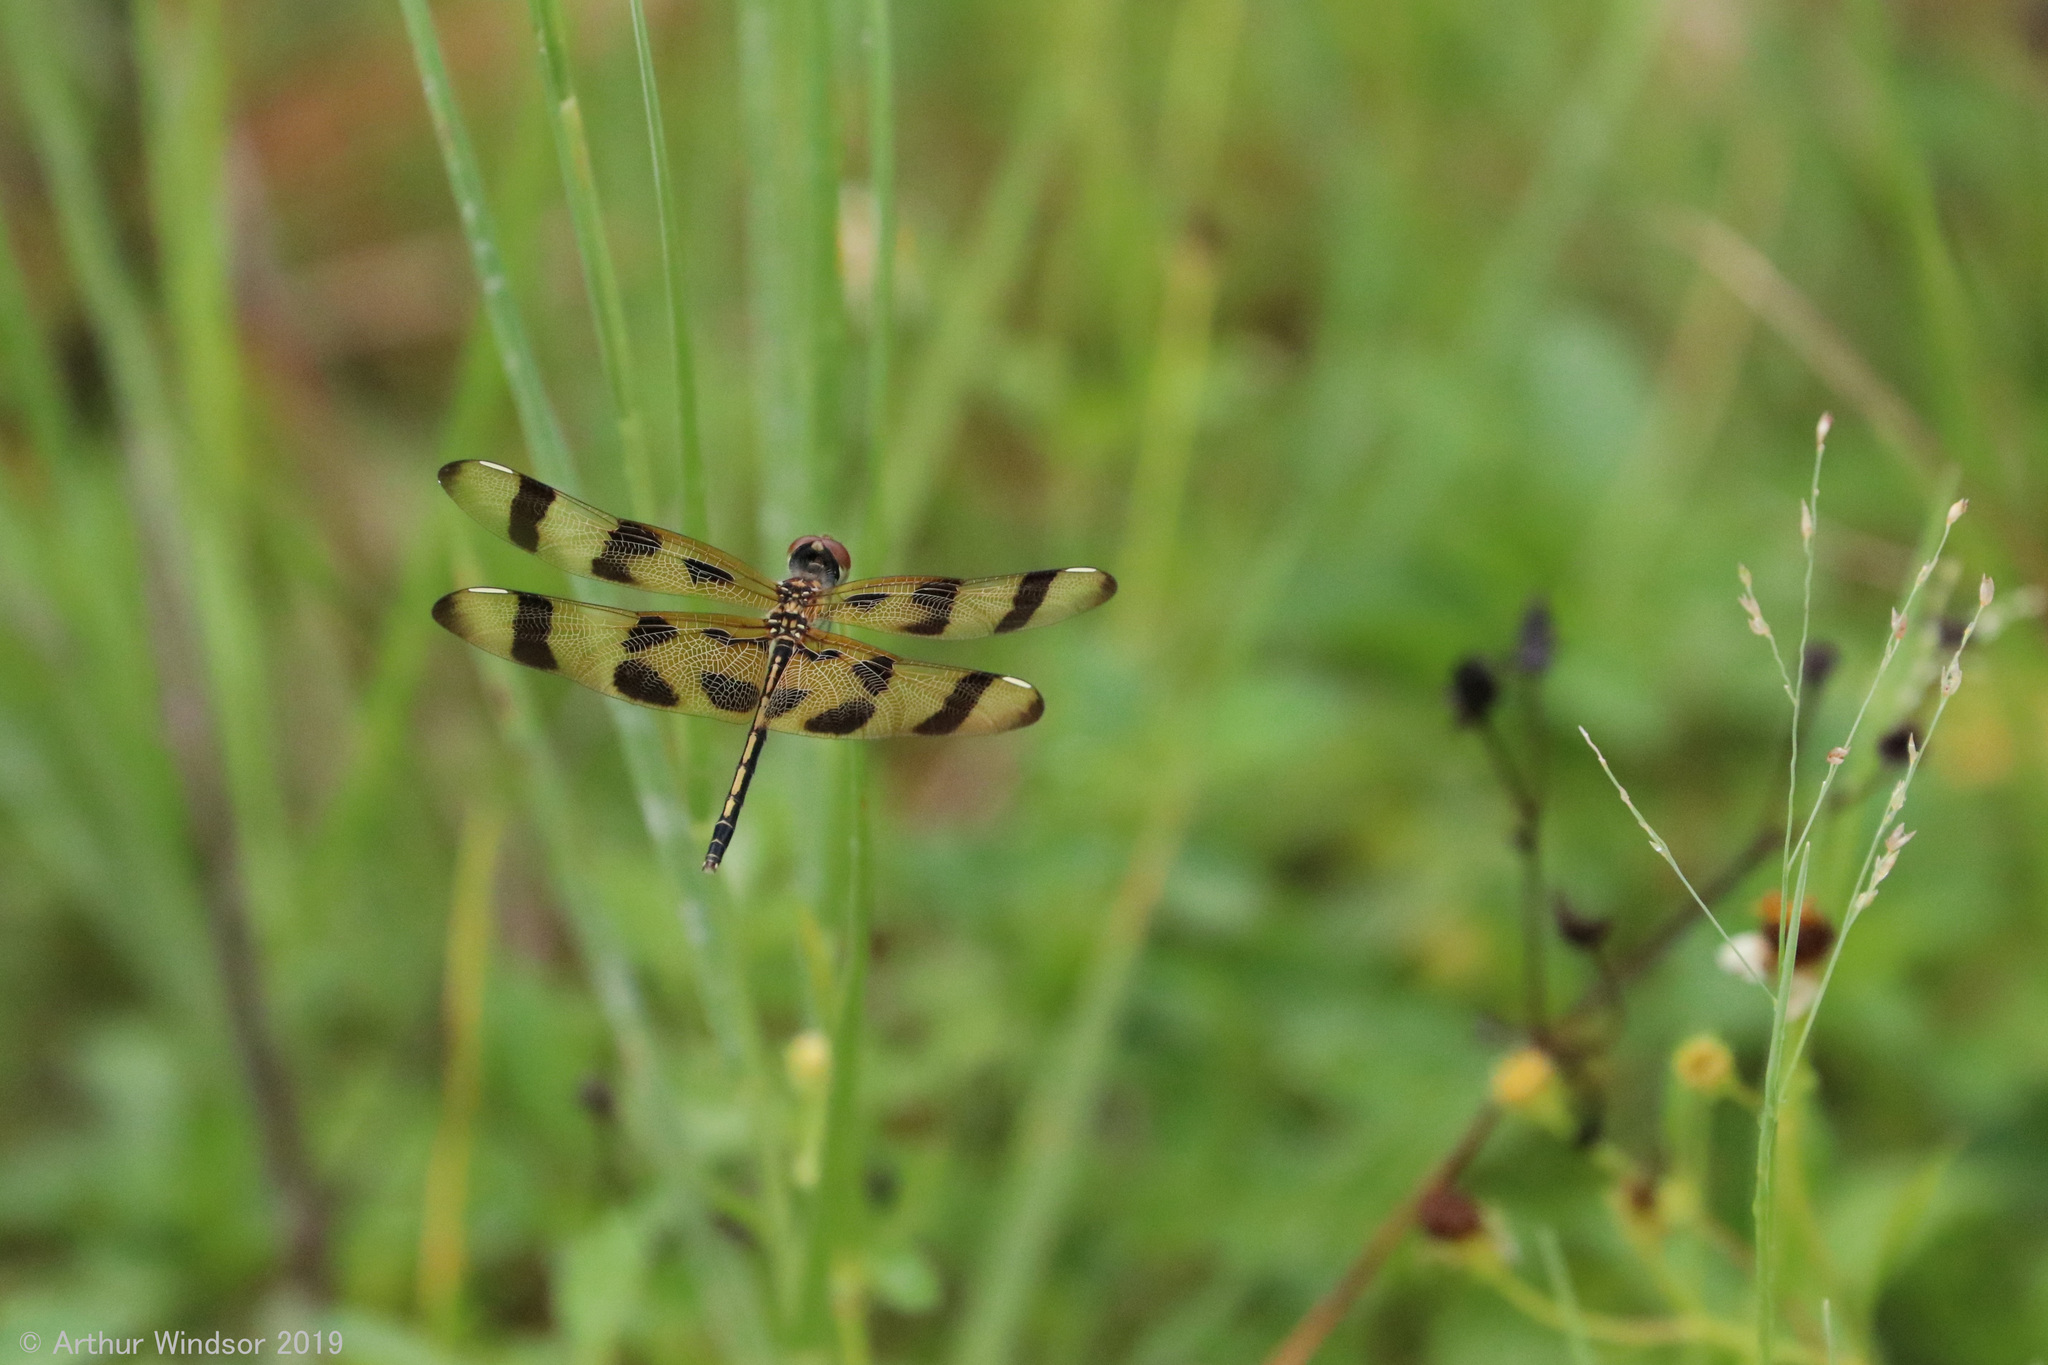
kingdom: Animalia
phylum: Arthropoda
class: Insecta
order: Odonata
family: Libellulidae
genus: Celithemis
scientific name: Celithemis eponina
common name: Halloween pennant
